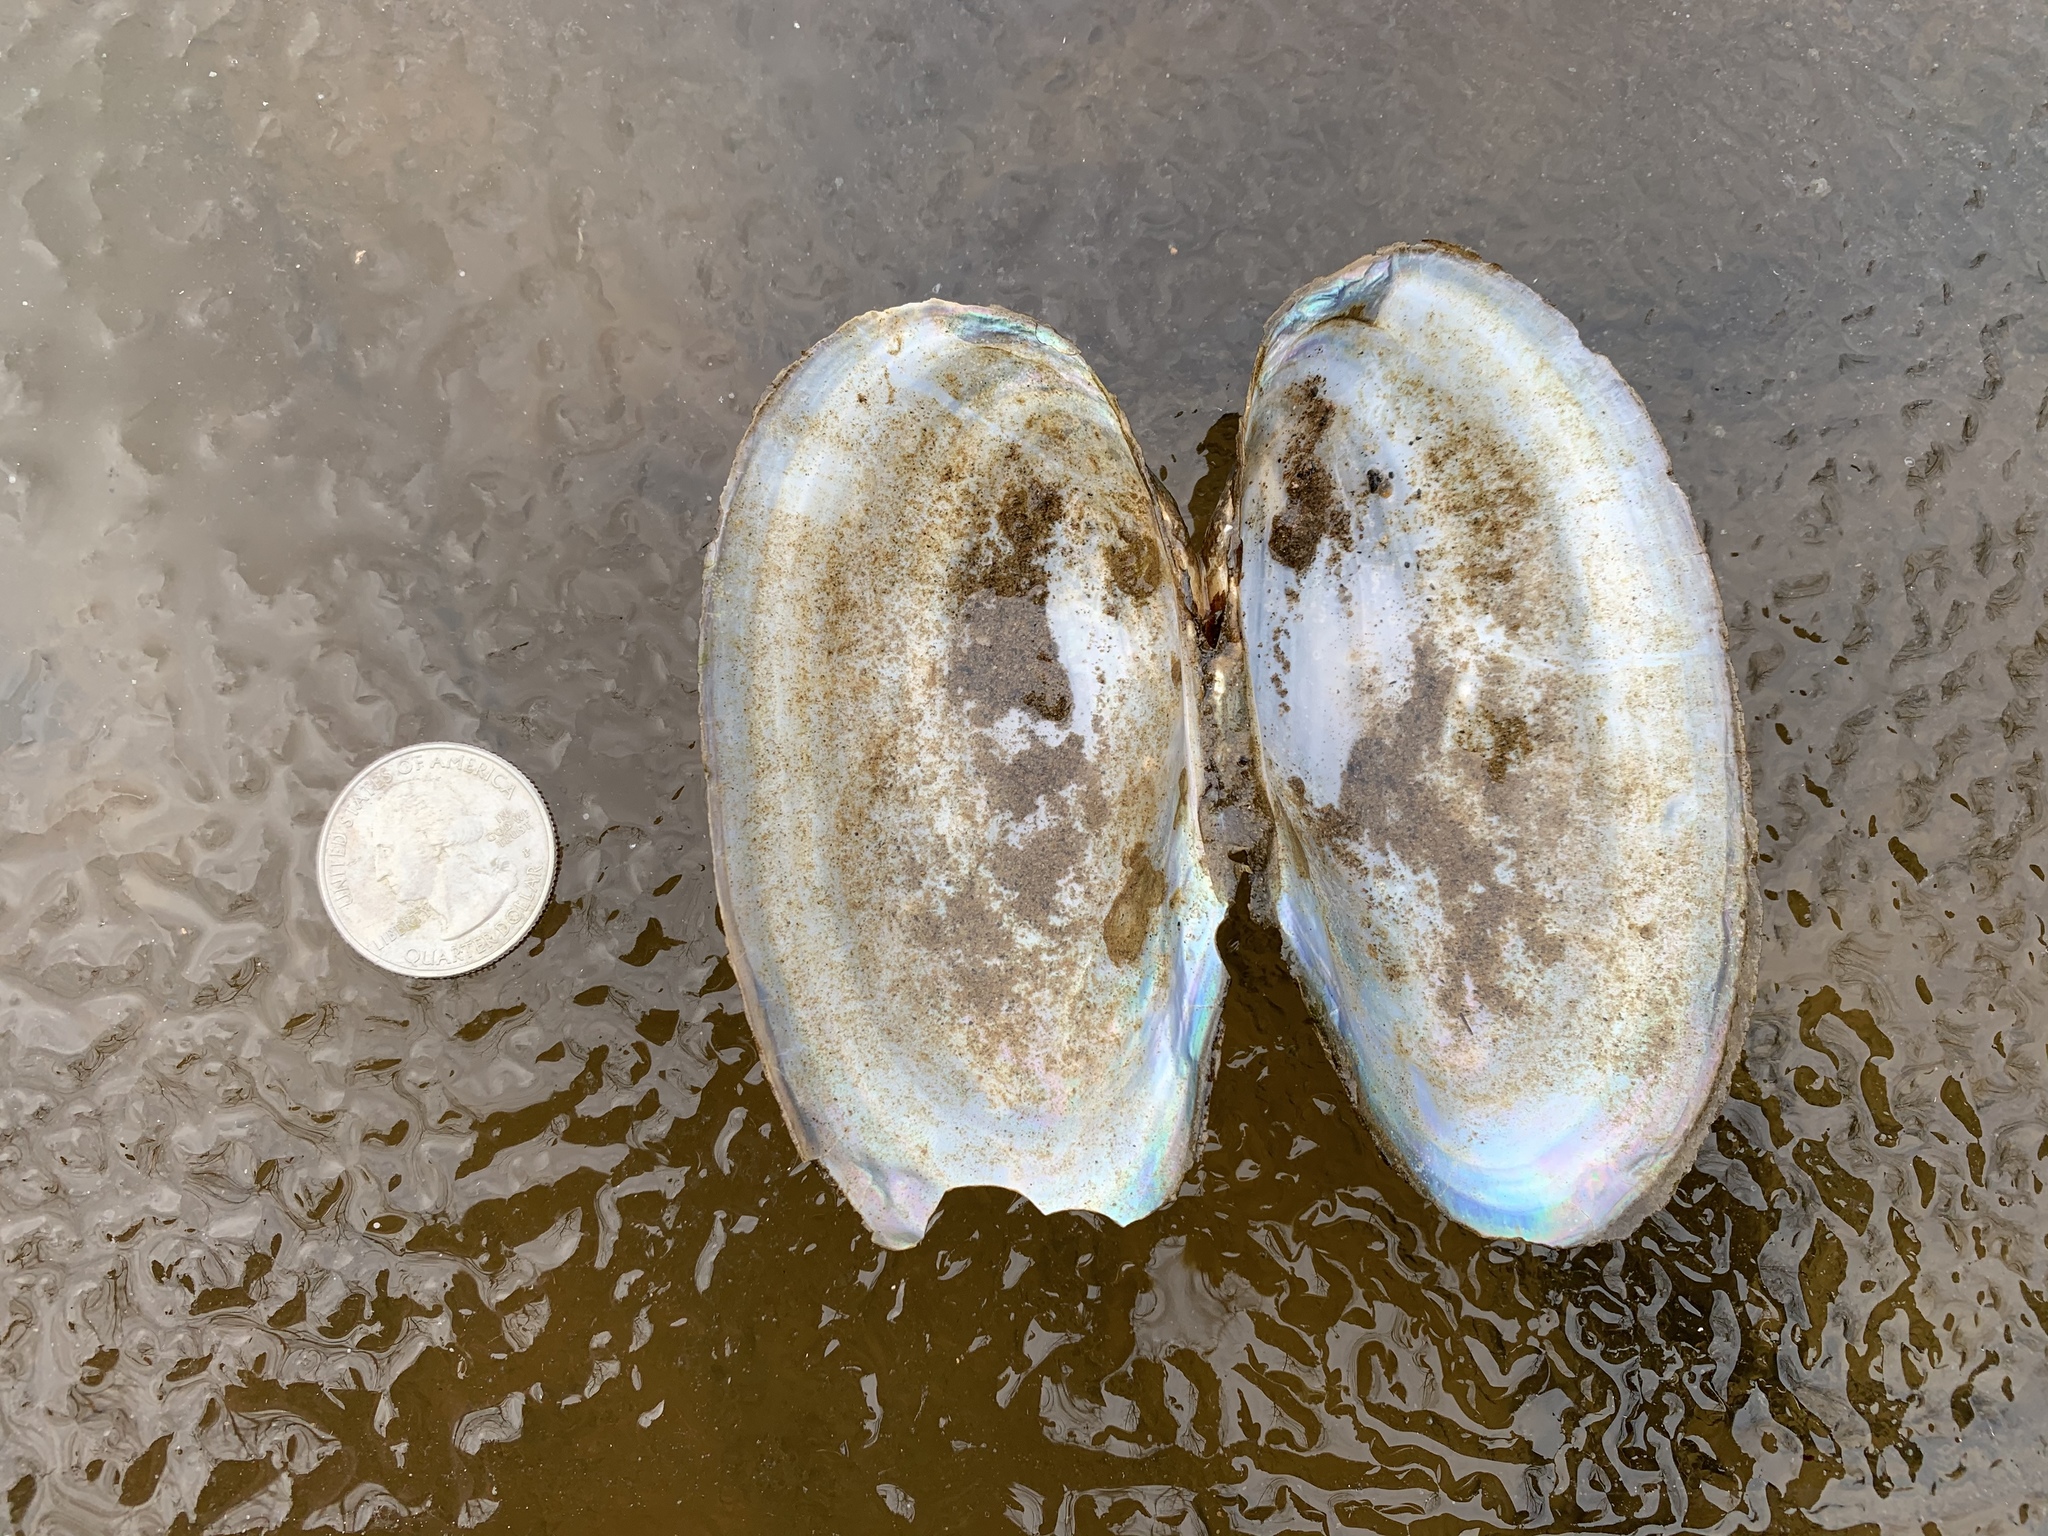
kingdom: Animalia
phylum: Mollusca
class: Bivalvia
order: Unionida
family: Unionidae
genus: Pyganodon
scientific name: Pyganodon cataracta
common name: Eastern floater
